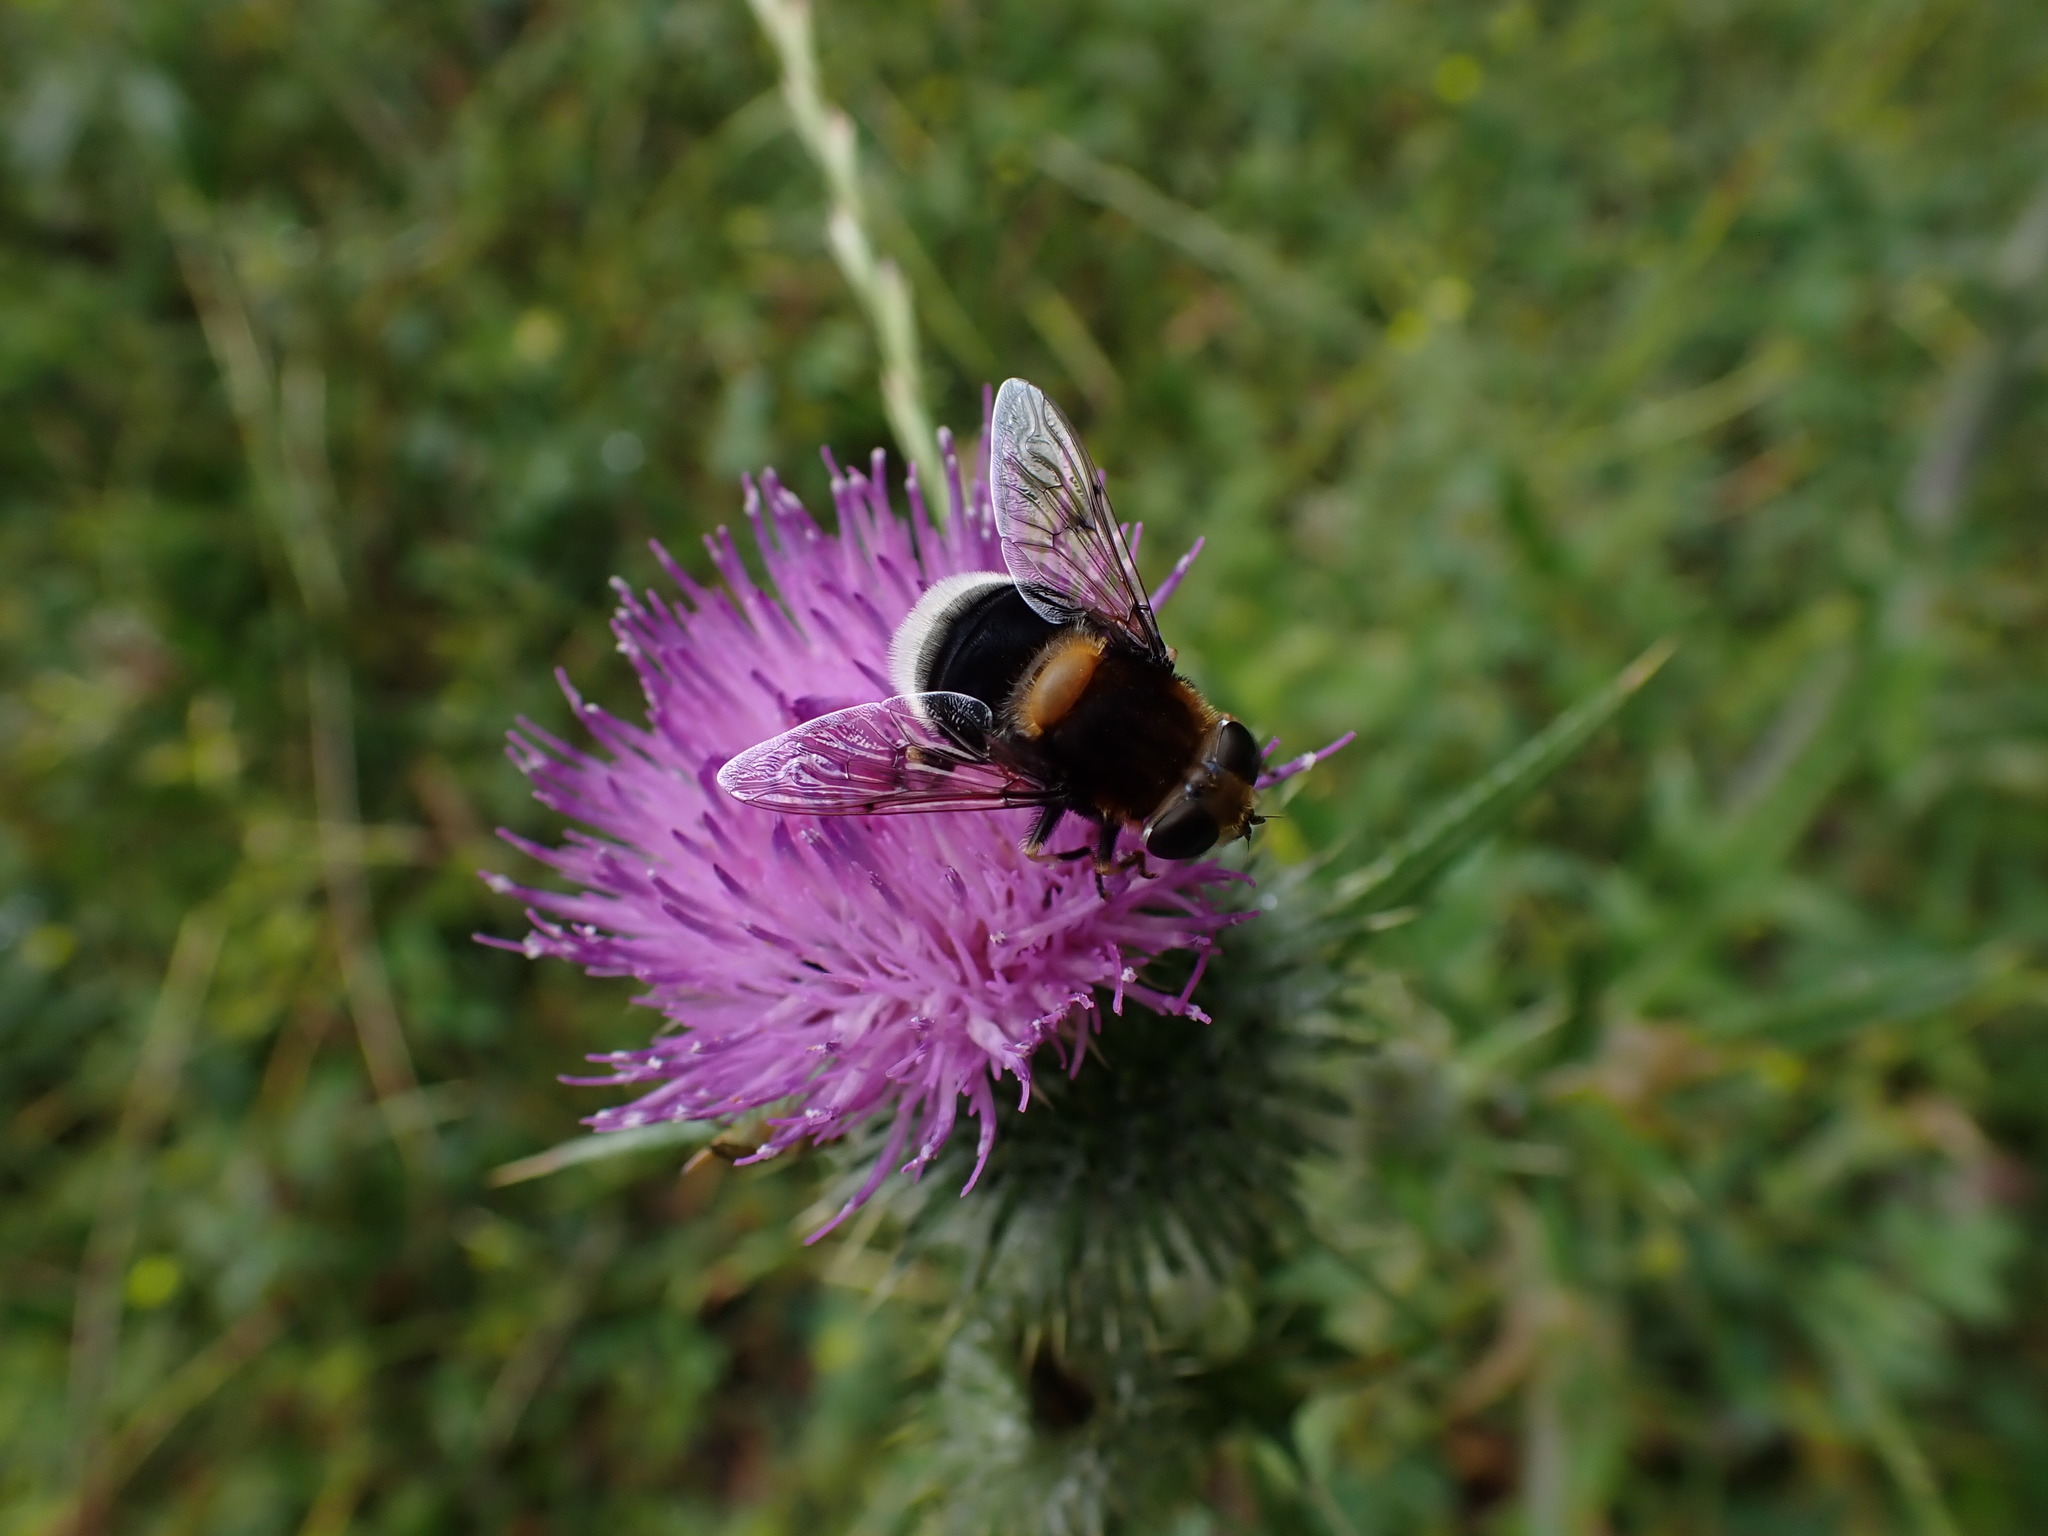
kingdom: Animalia
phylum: Arthropoda
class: Insecta
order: Diptera
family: Syrphidae
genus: Eristalis
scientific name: Eristalis intricaria
